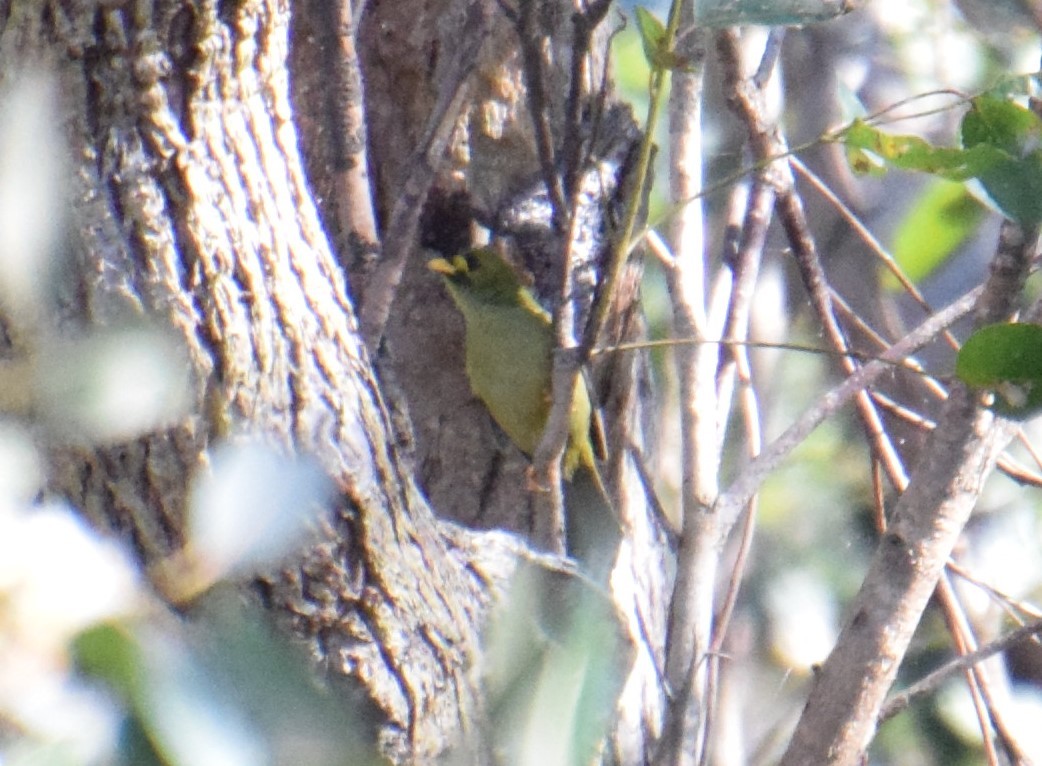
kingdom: Animalia
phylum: Chordata
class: Aves
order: Passeriformes
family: Meliphagidae
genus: Manorina
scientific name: Manorina melanophrys
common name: Bell miner
